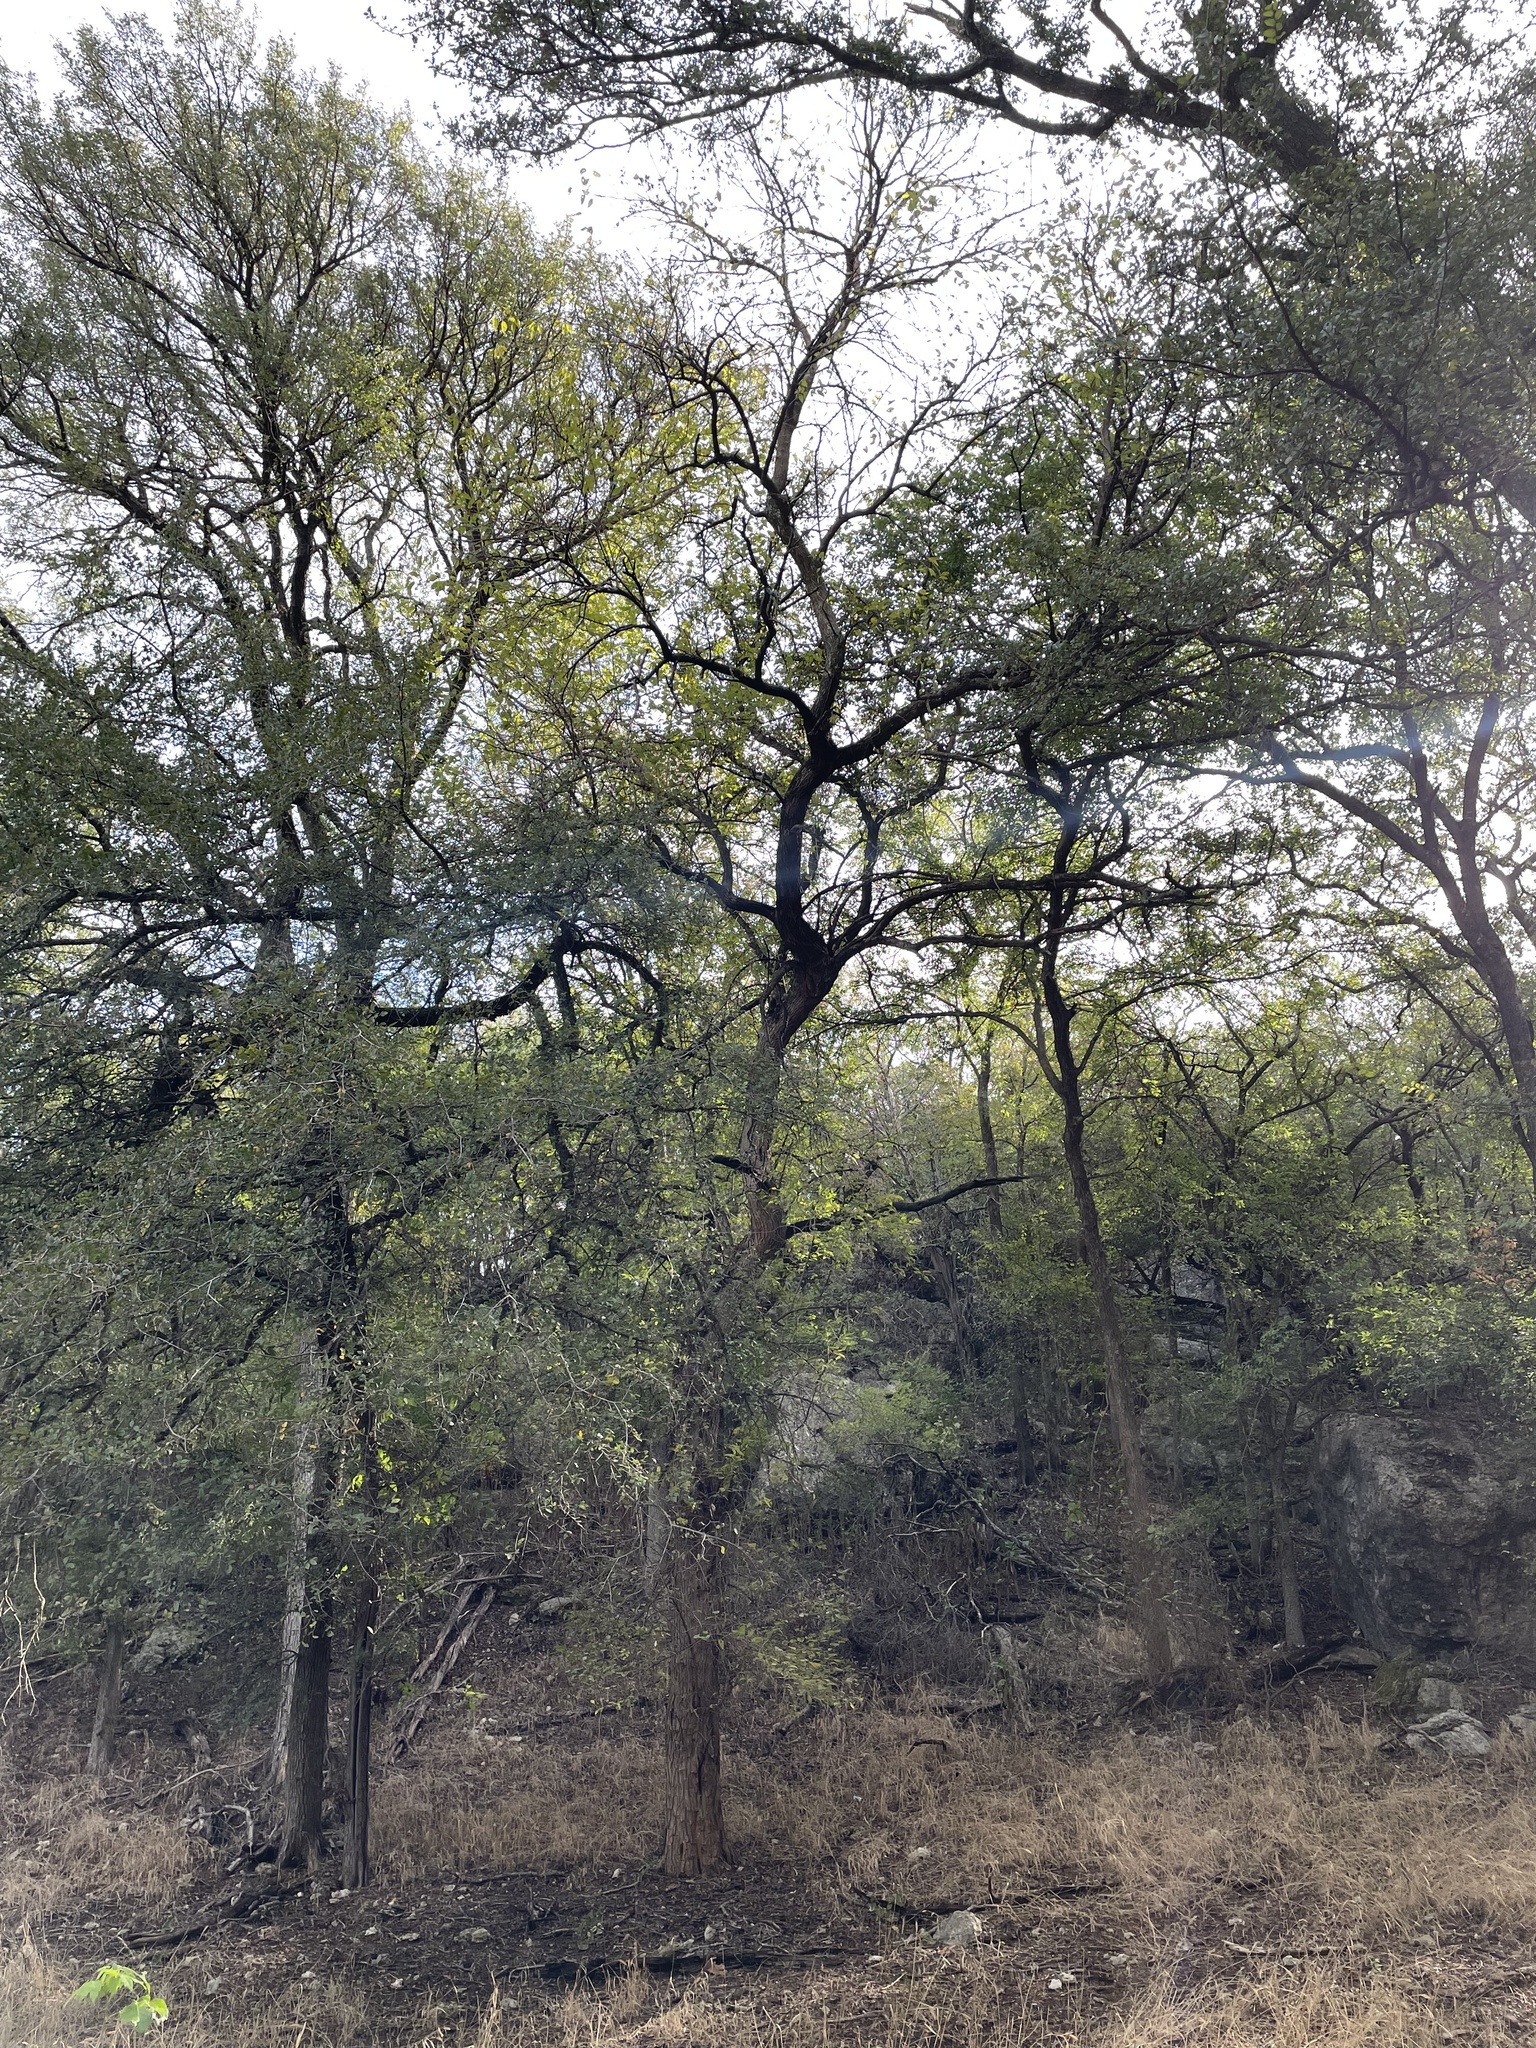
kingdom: Plantae
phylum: Tracheophyta
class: Magnoliopsida
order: Rosales
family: Moraceae
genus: Maclura
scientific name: Maclura pomifera
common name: Osage-orange
